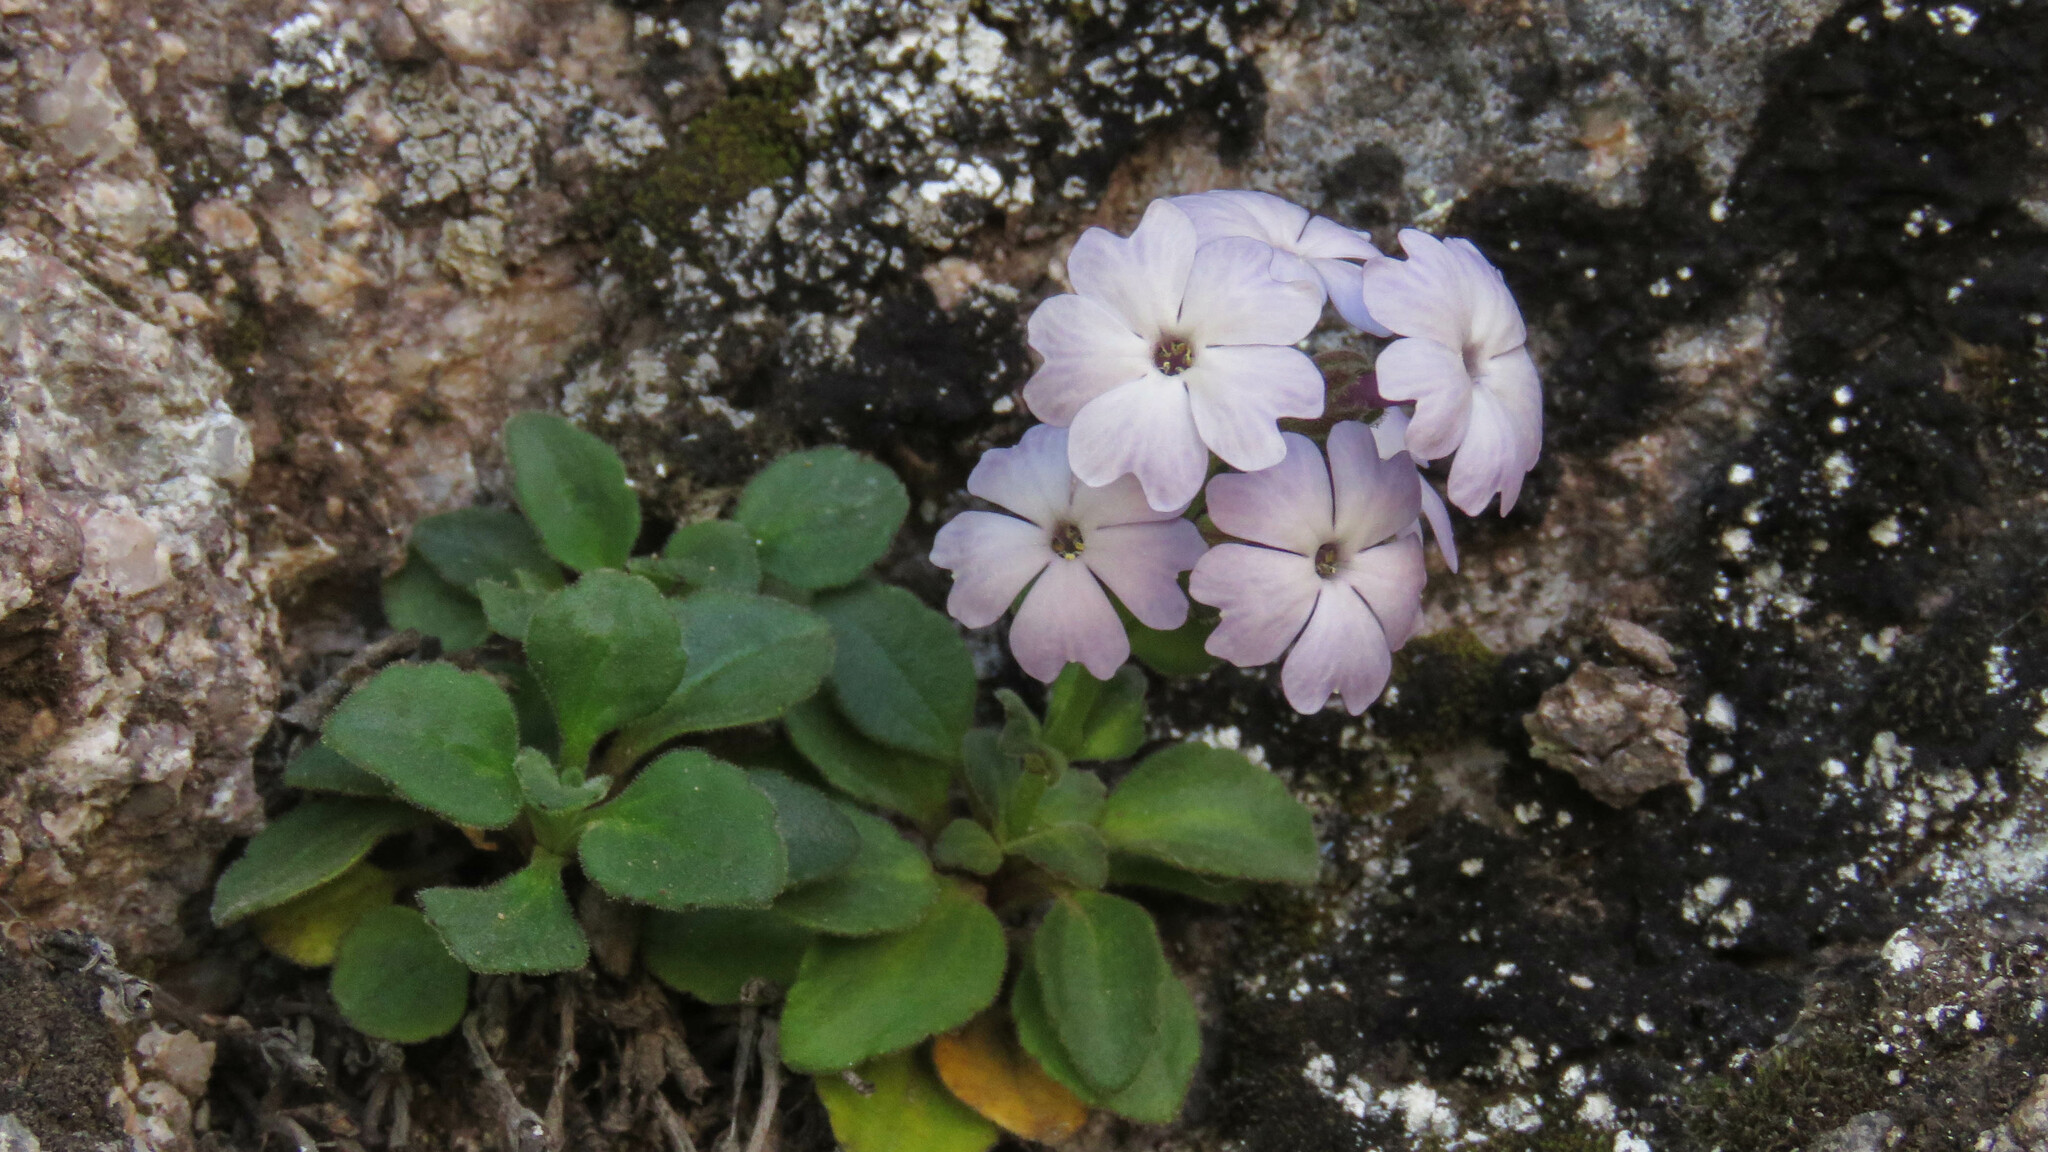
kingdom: Plantae
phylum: Tracheophyta
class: Magnoliopsida
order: Lamiales
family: Plantaginaceae
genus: Ourisia
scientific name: Ourisia fragrans
